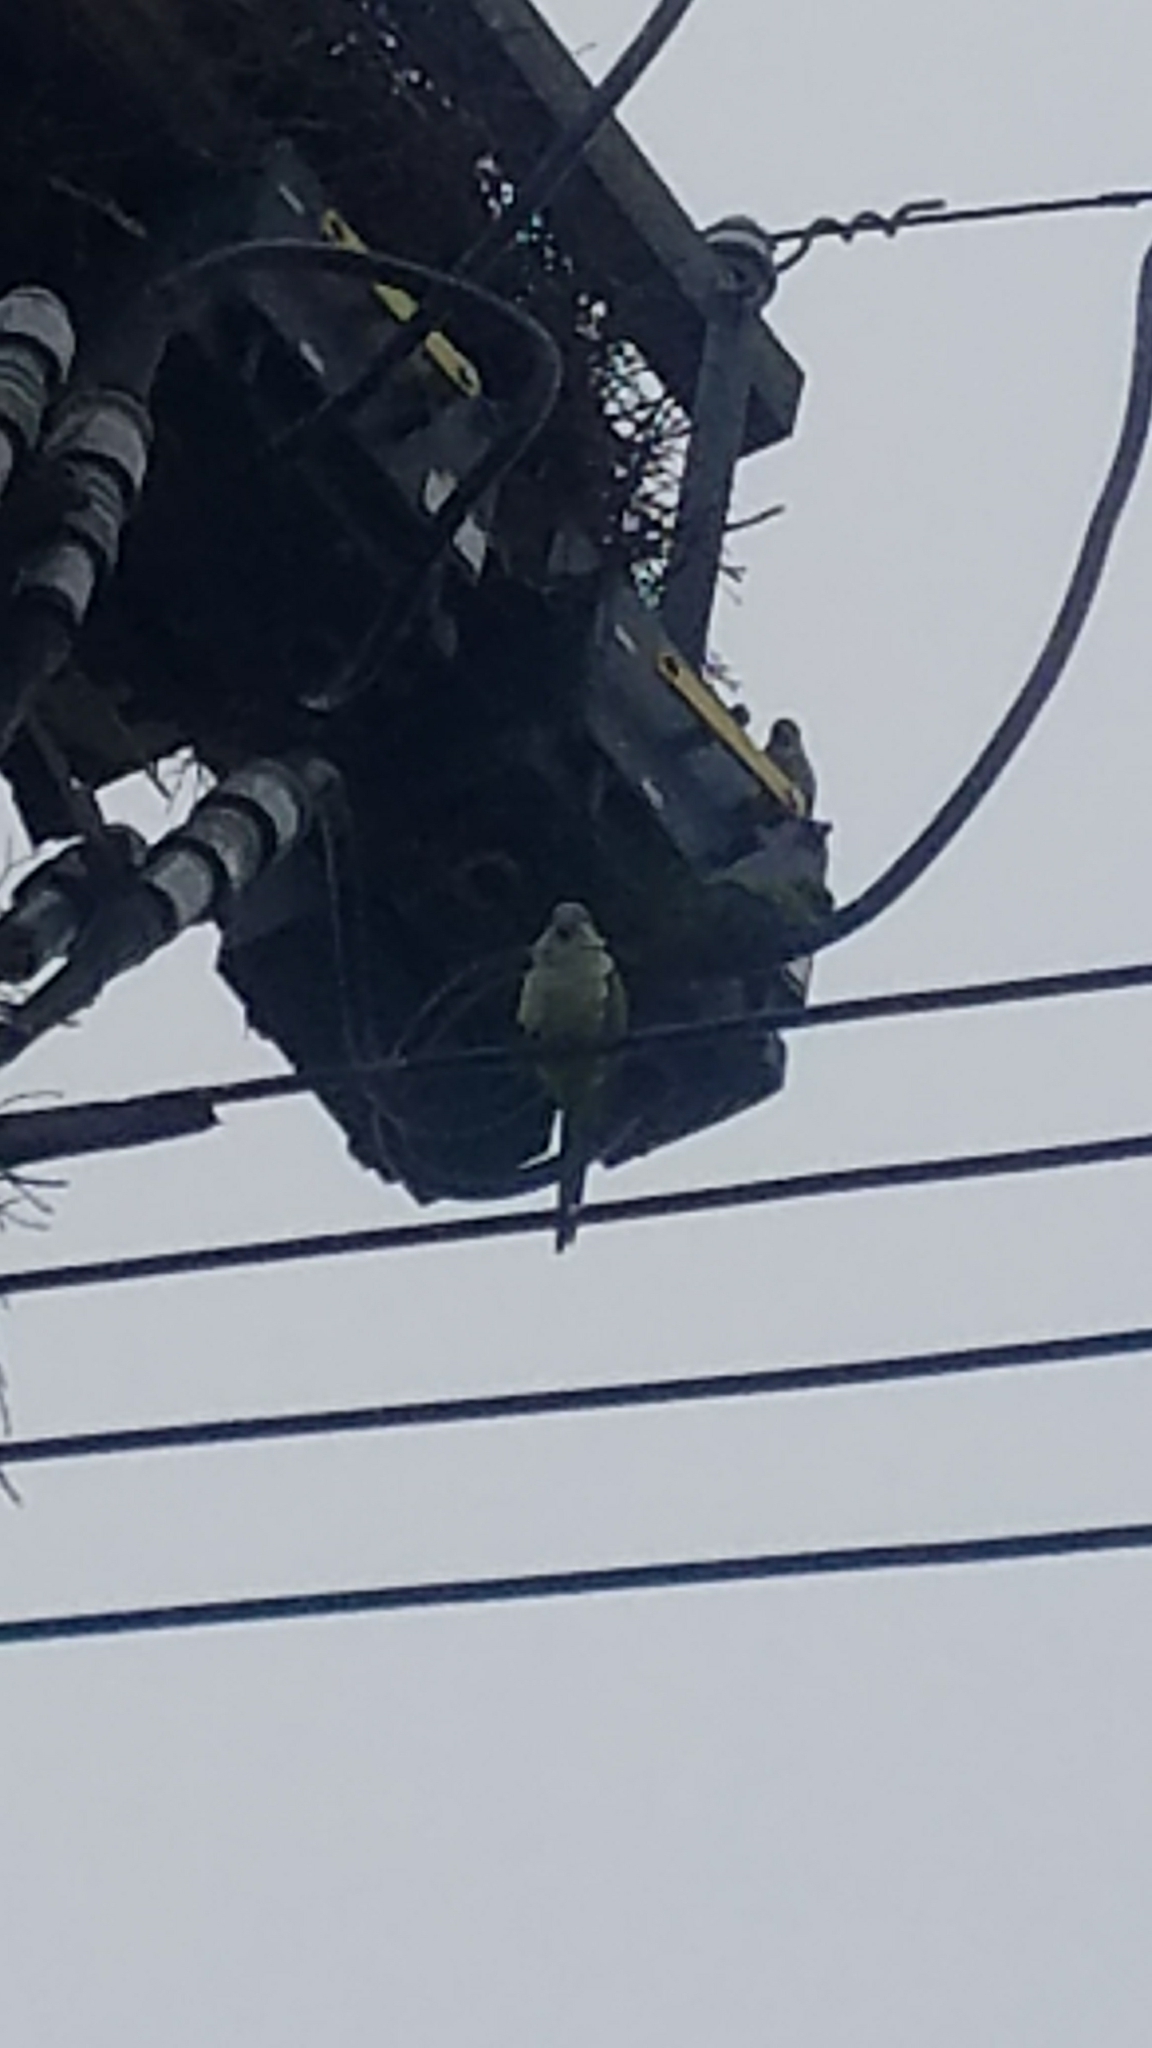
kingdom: Animalia
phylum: Chordata
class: Aves
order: Psittaciformes
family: Psittacidae
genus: Myiopsitta
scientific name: Myiopsitta monachus
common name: Monk parakeet
